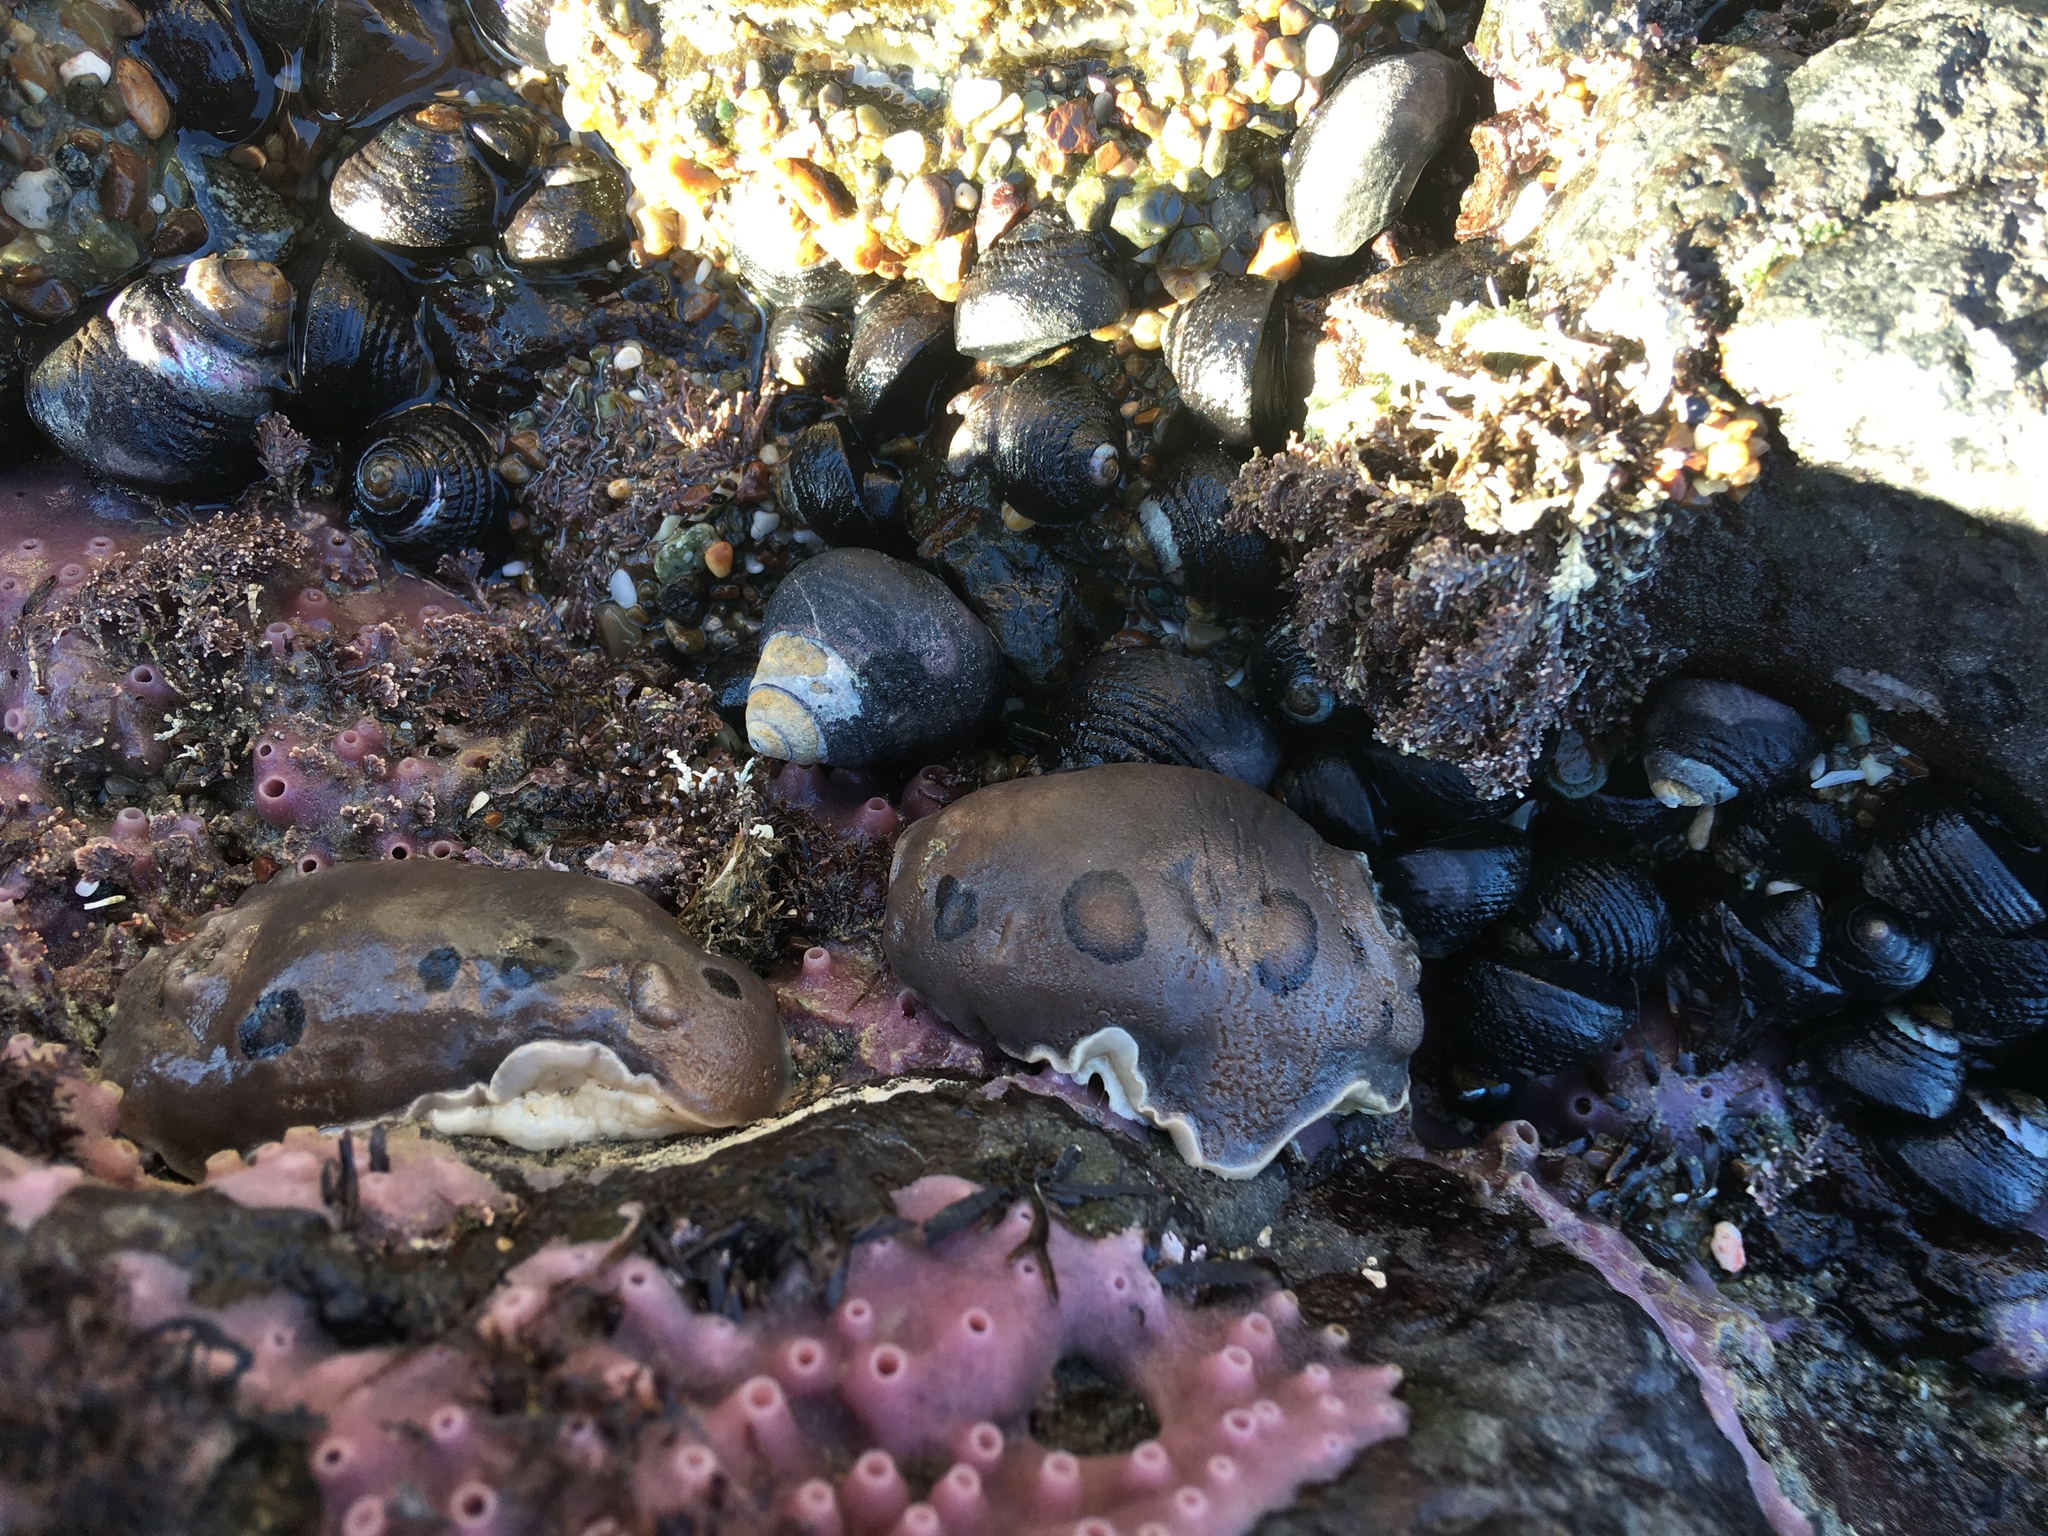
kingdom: Animalia
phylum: Mollusca
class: Gastropoda
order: Nudibranchia
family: Discodorididae
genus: Diaulula
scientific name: Diaulula sandiegensis
